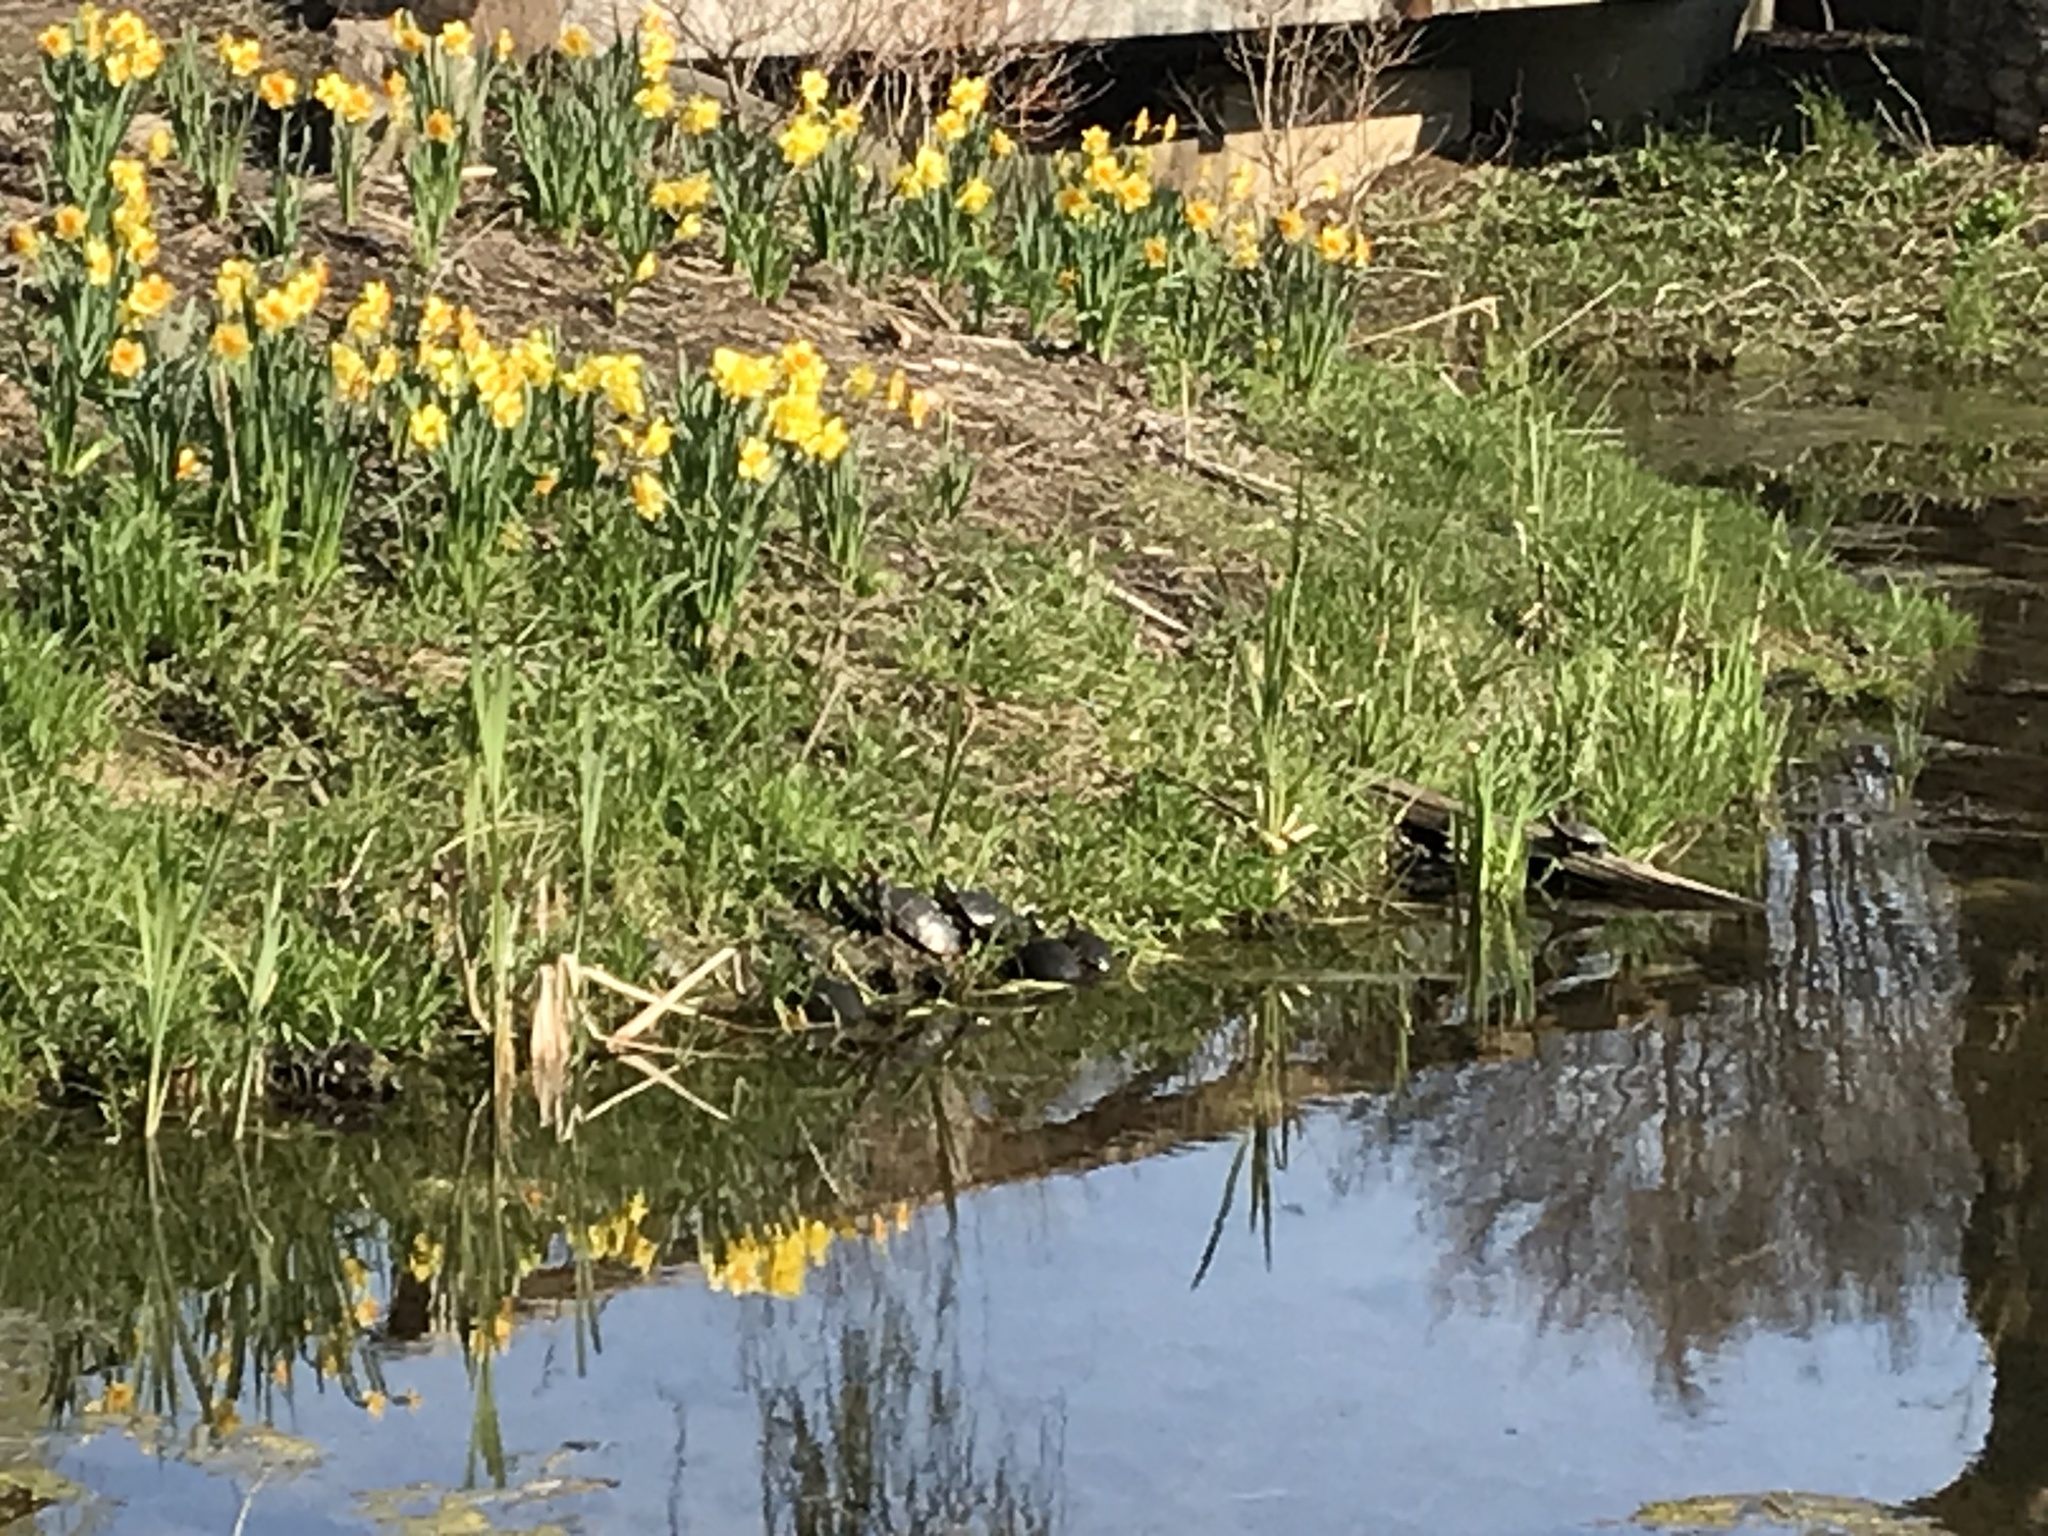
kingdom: Animalia
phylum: Chordata
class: Testudines
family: Emydidae
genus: Chrysemys
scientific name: Chrysemys picta
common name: Painted turtle
